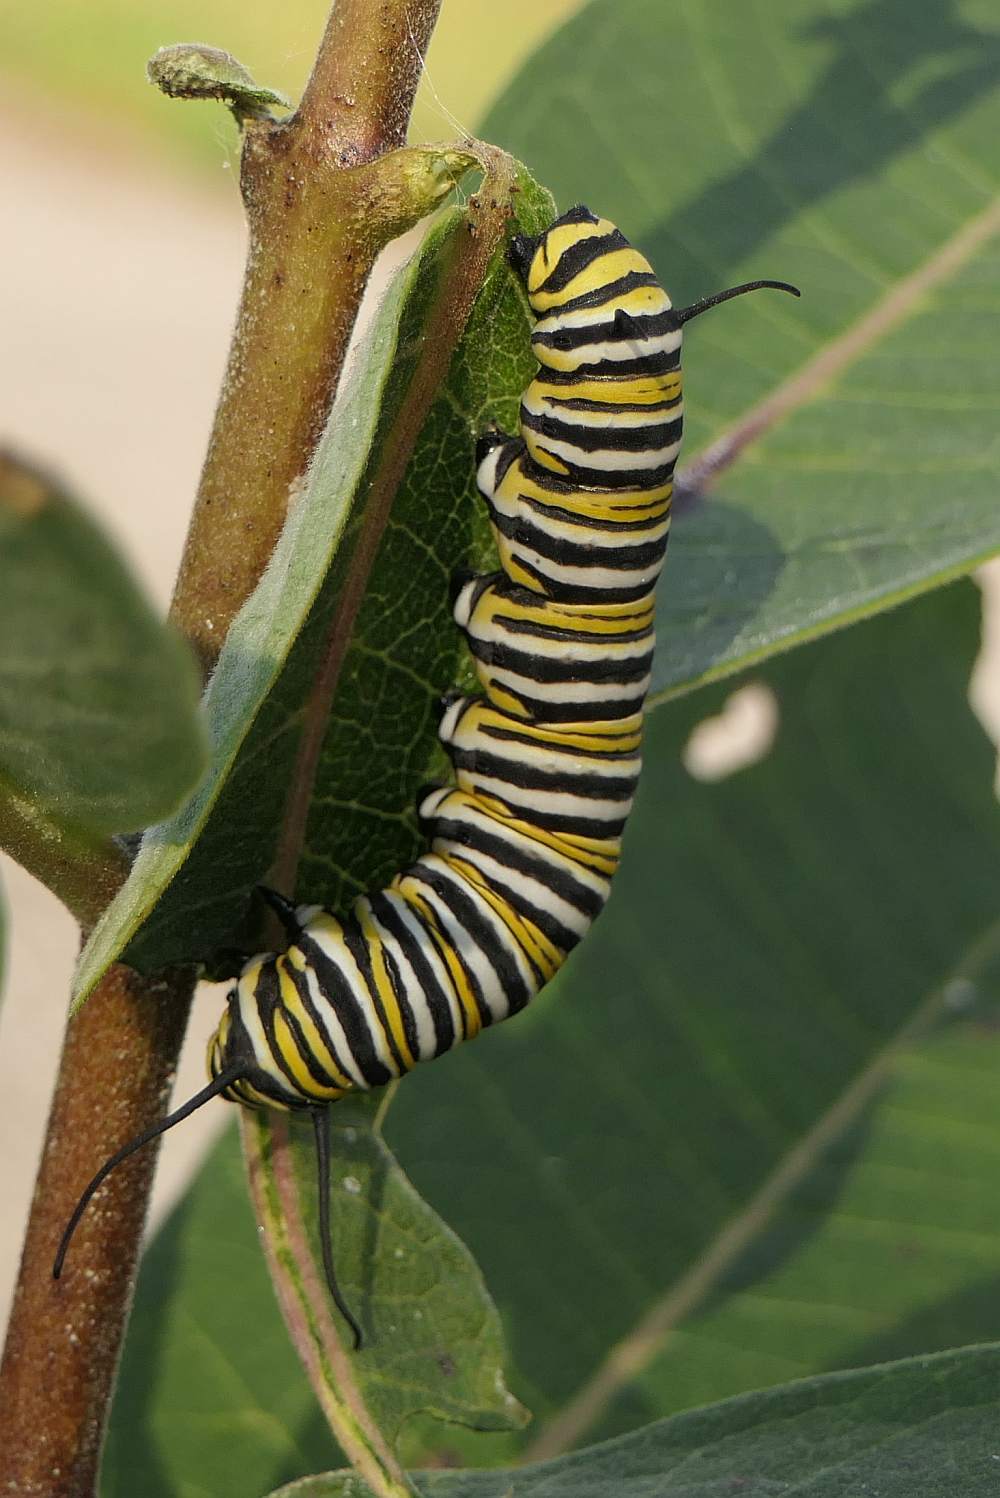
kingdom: Animalia
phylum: Arthropoda
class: Insecta
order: Lepidoptera
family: Nymphalidae
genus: Danaus
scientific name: Danaus plexippus
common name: Monarch
